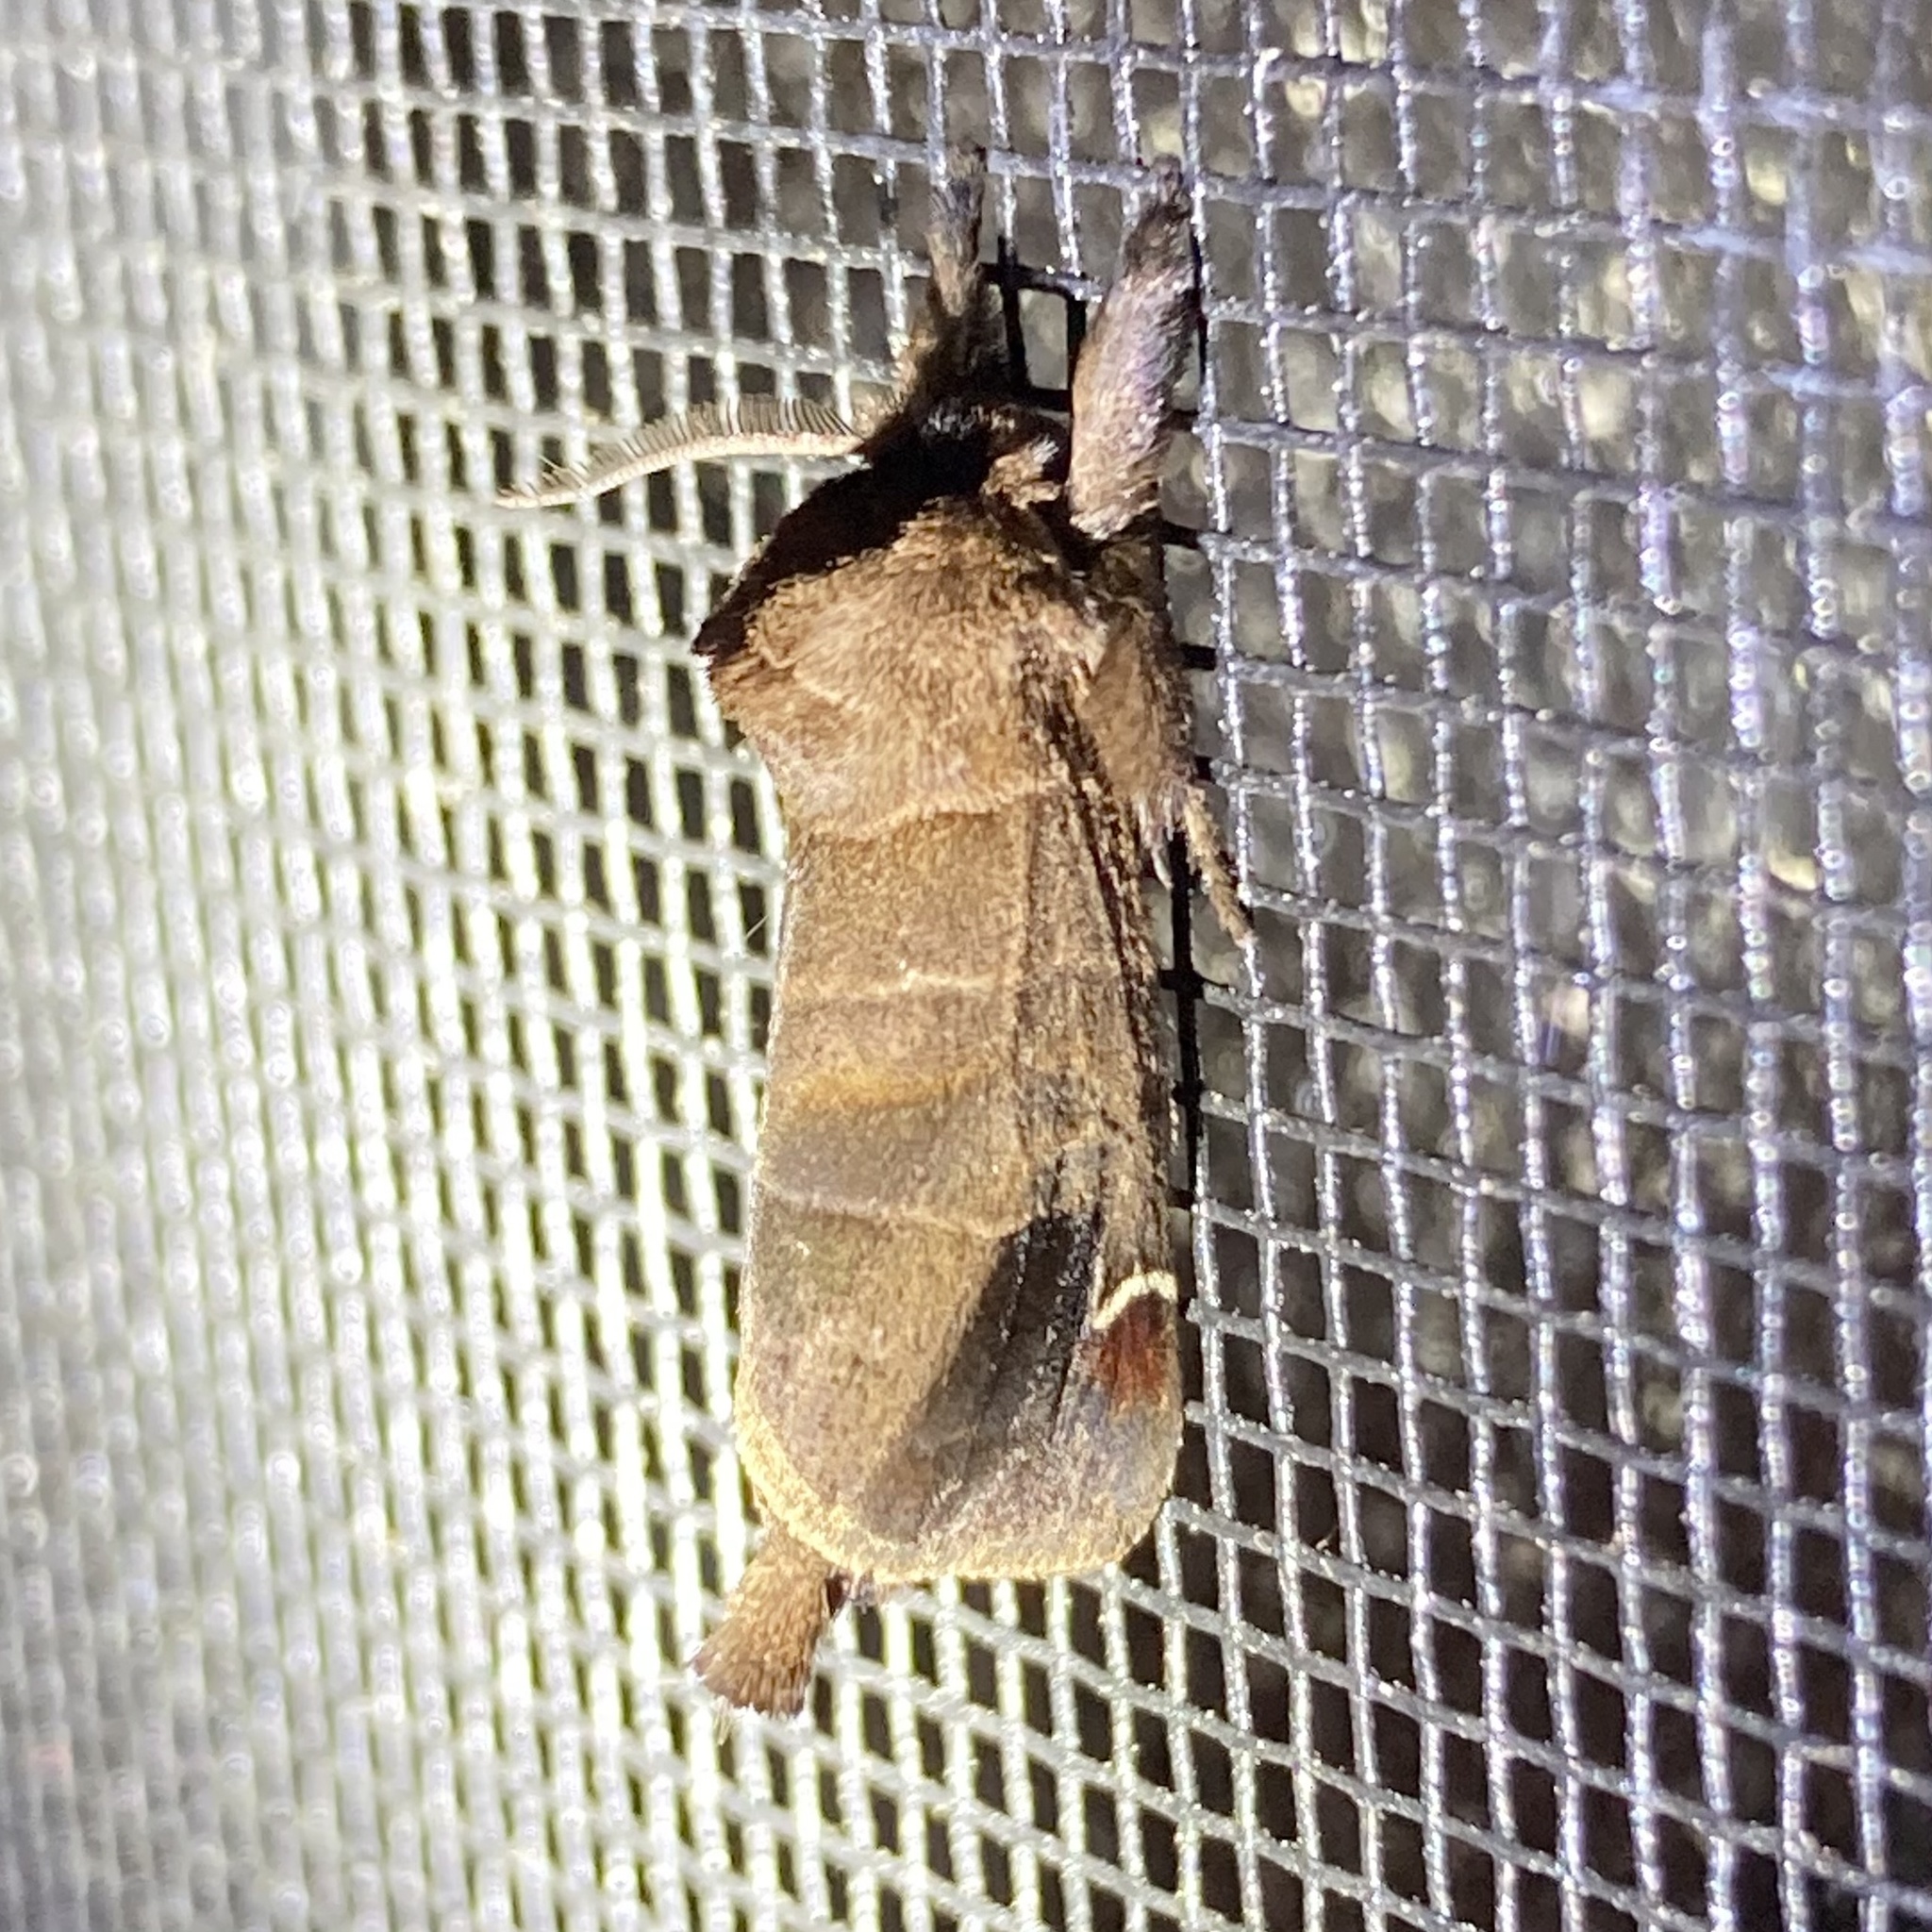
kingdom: Animalia
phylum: Arthropoda
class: Insecta
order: Lepidoptera
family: Notodontidae
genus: Clostera
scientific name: Clostera albosigma
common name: Sigmoid prominent
